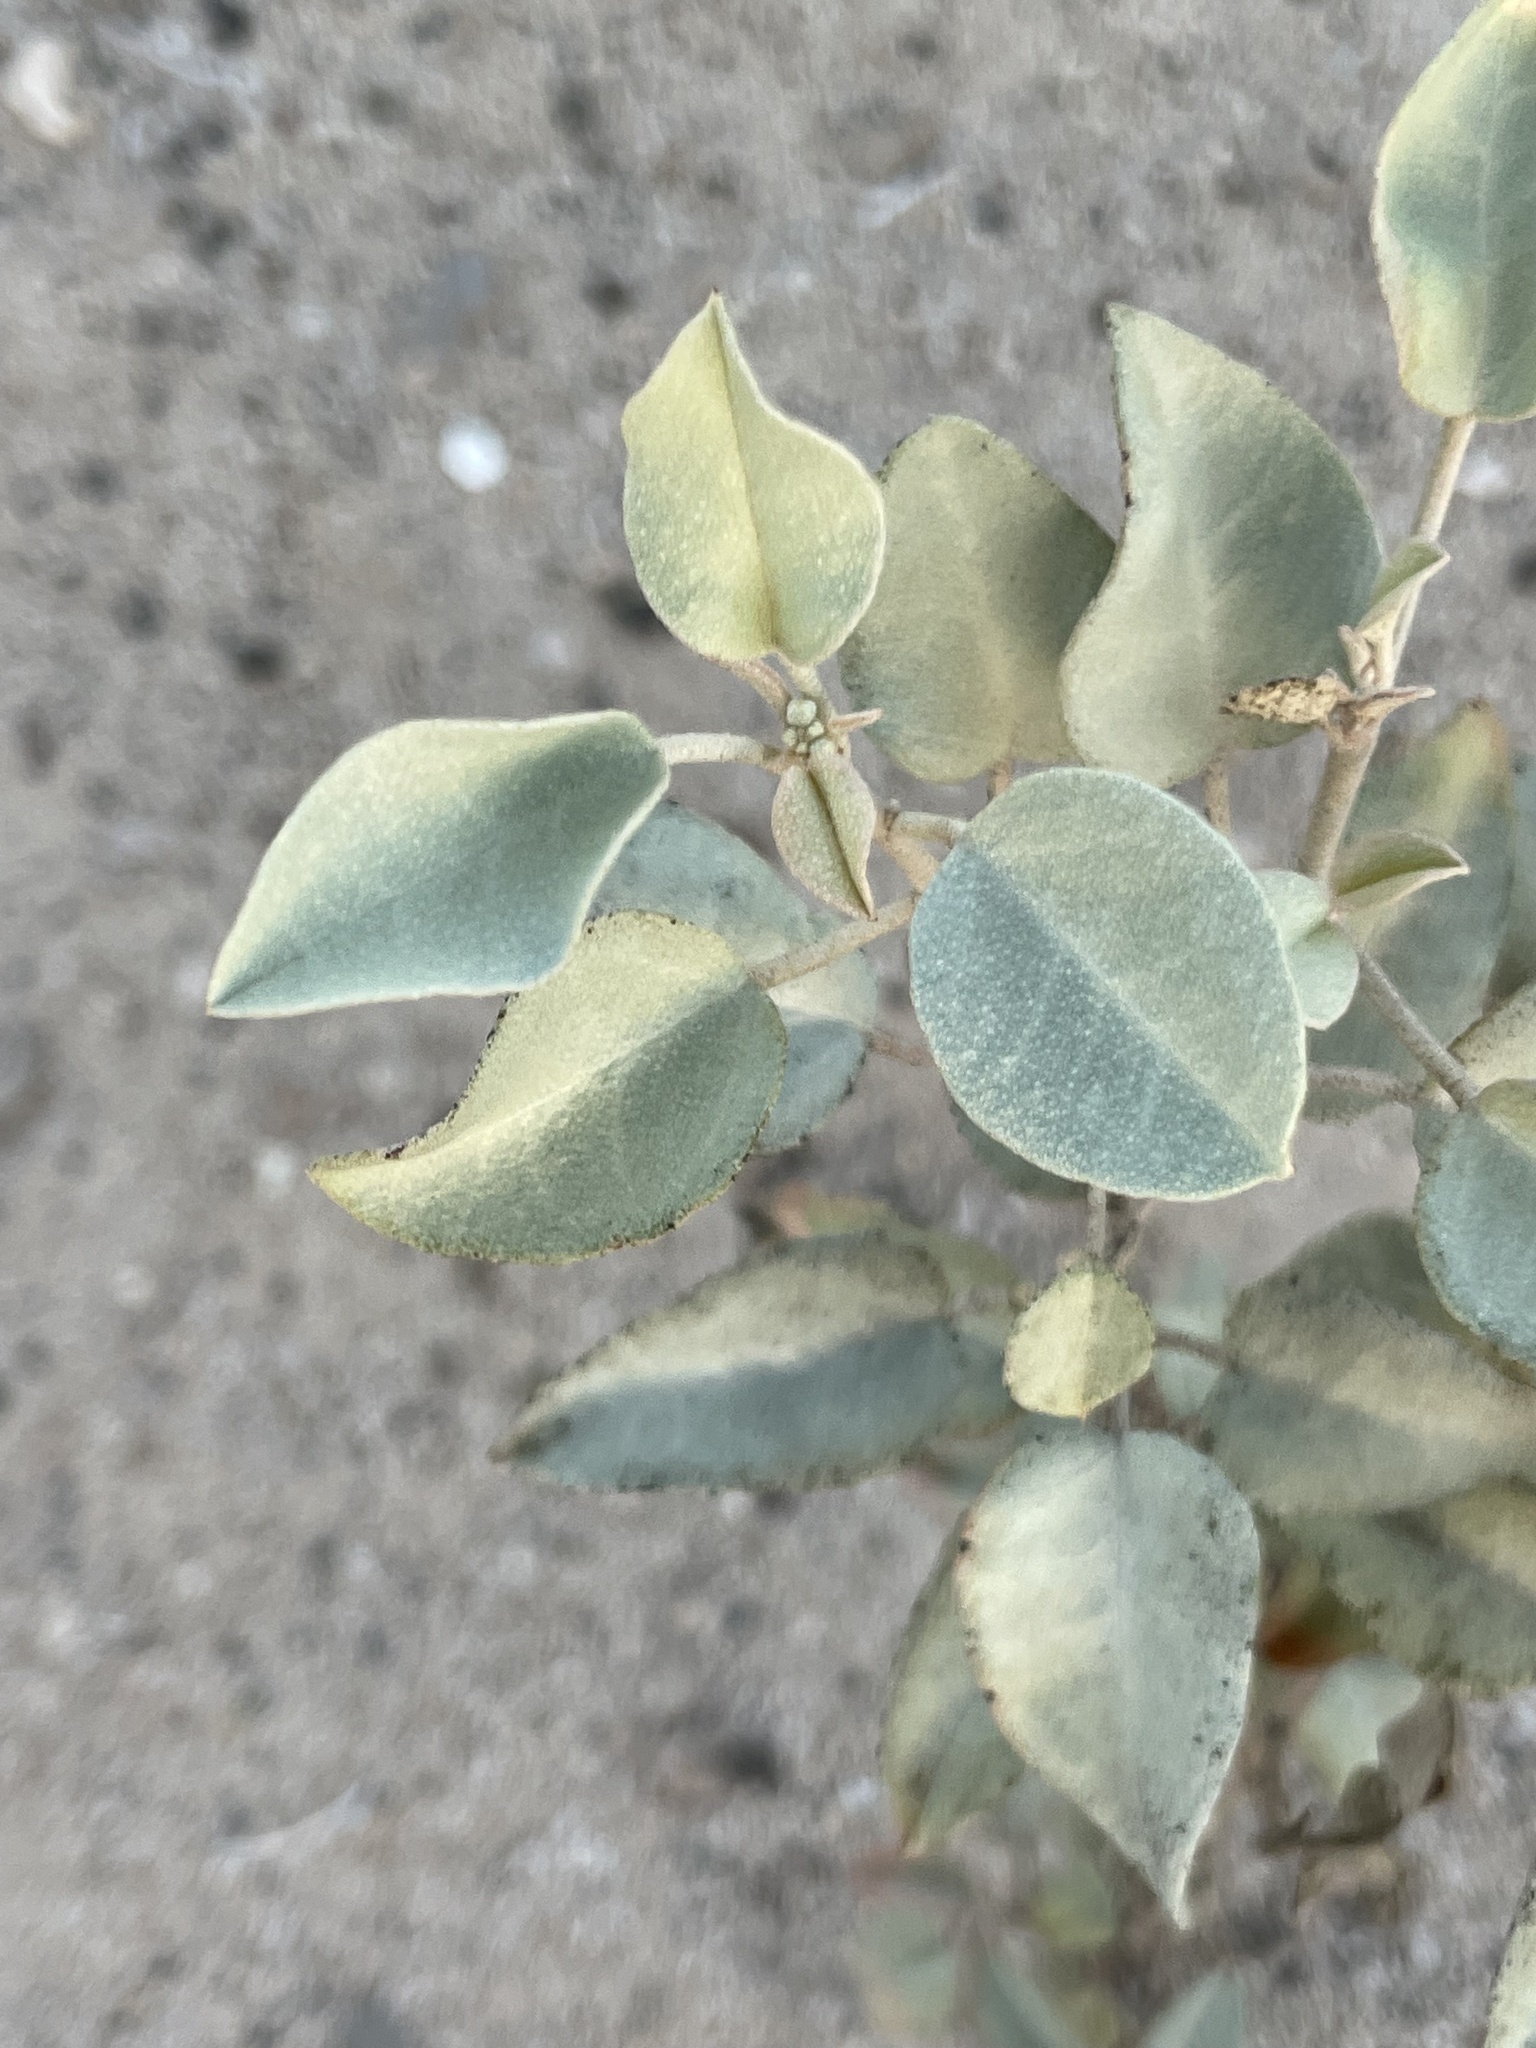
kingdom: Plantae
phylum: Tracheophyta
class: Magnoliopsida
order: Malpighiales
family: Euphorbiaceae
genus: Croton
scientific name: Croton californicus
